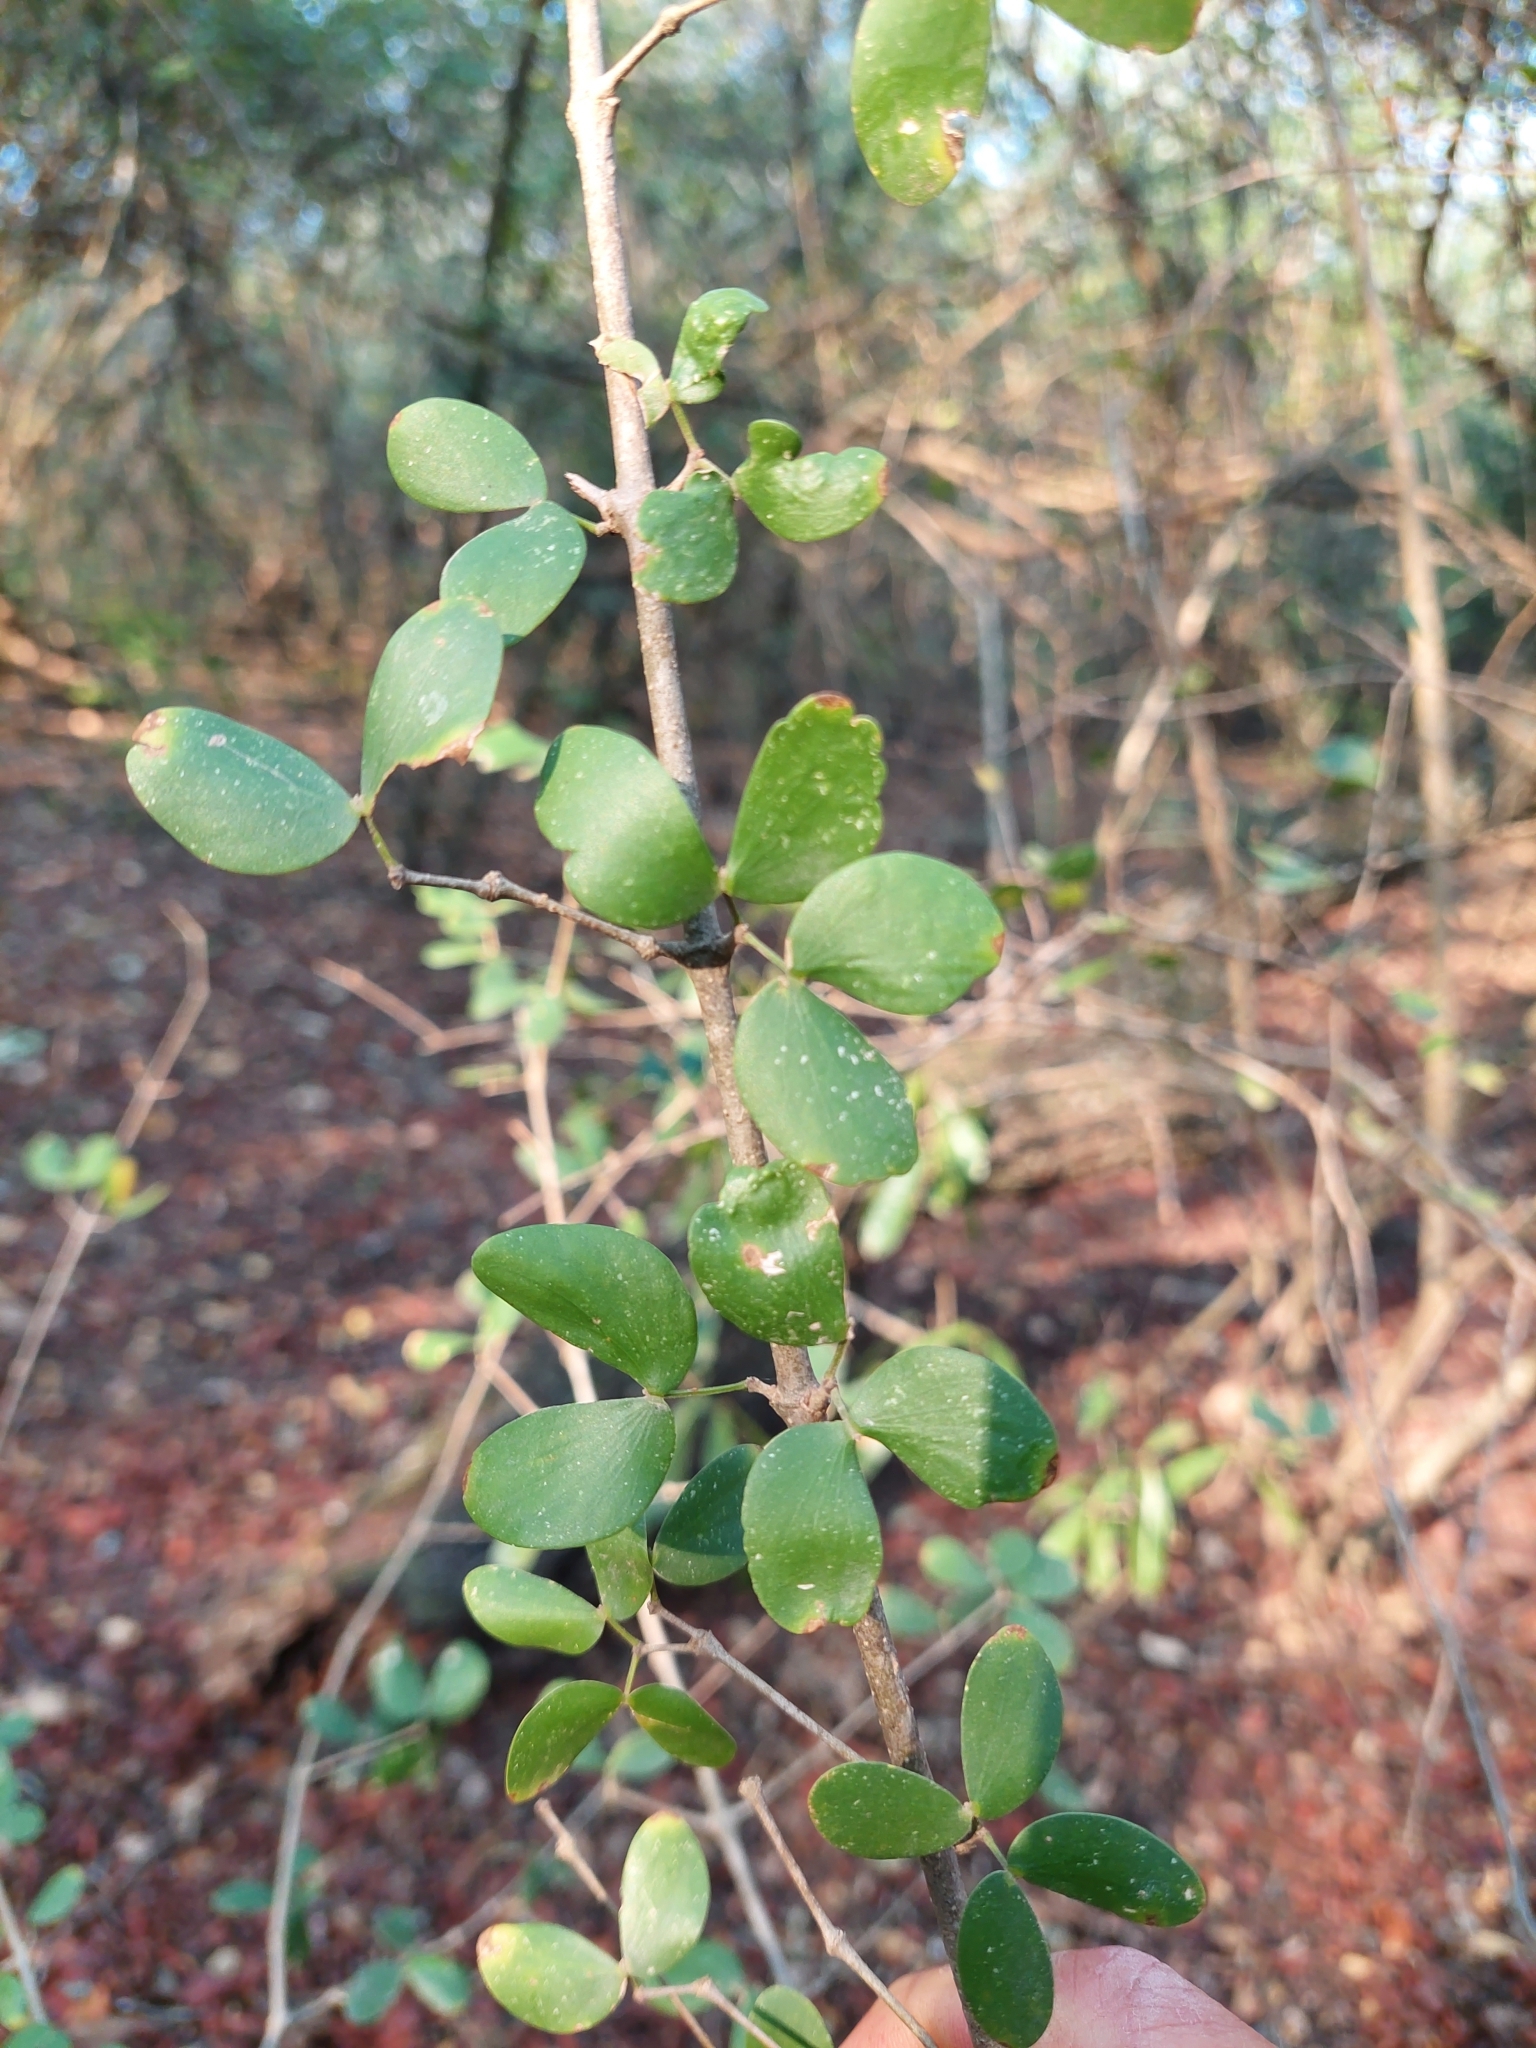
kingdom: Plantae
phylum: Tracheophyta
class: Magnoliopsida
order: Zygophyllales
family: Zygophyllaceae
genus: Gonopterodendron
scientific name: Gonopterodendron sarmientoi
